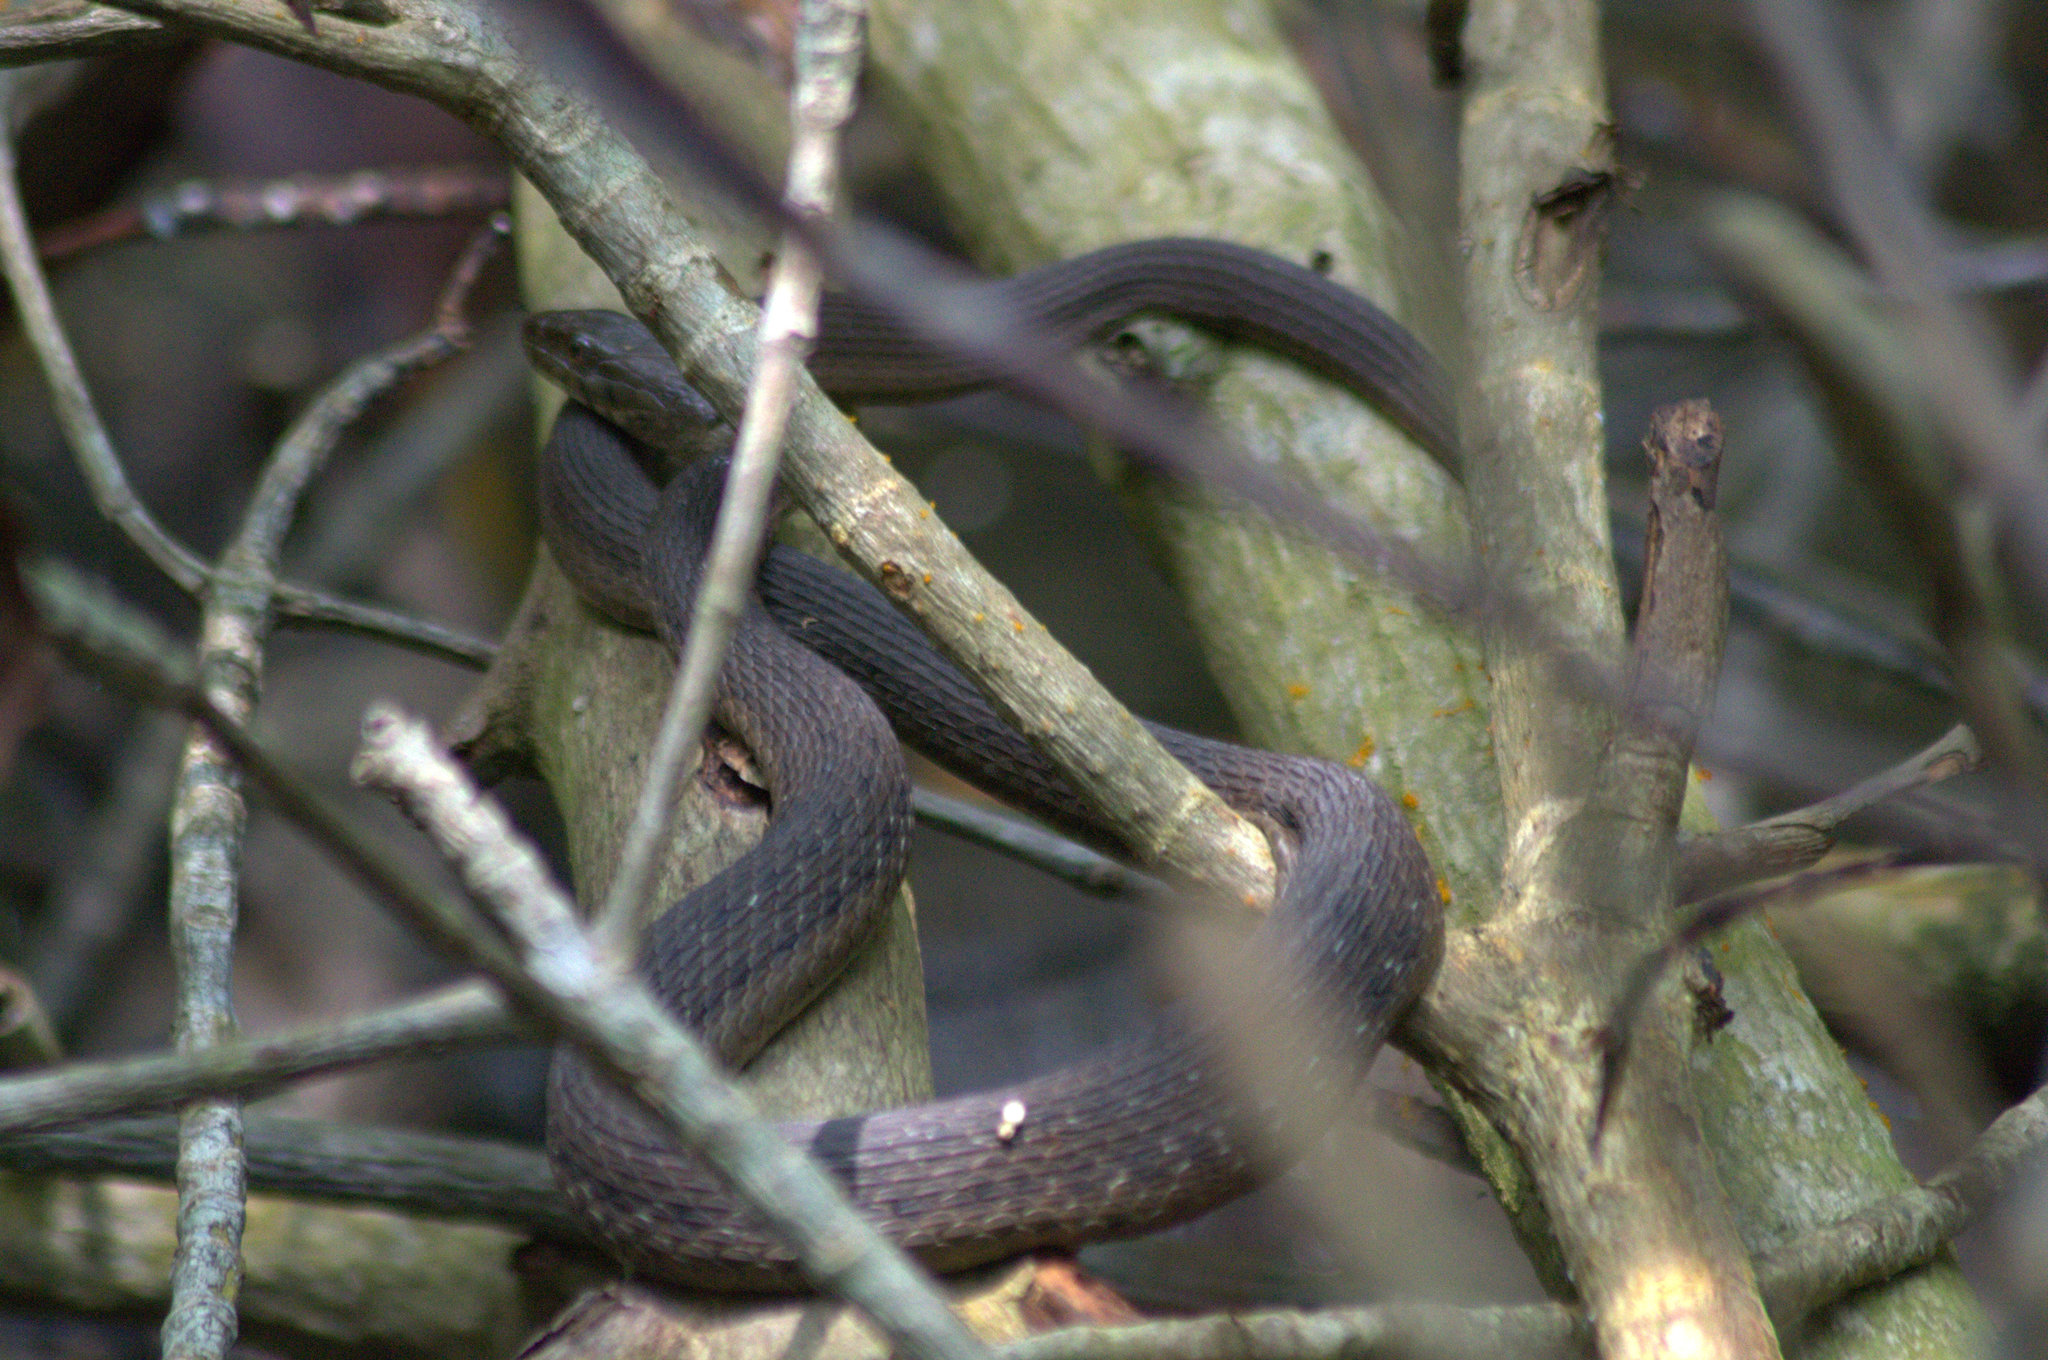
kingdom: Animalia
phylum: Chordata
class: Squamata
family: Colubridae
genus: Thamnophis
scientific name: Thamnophis validus
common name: West coast garter snake
